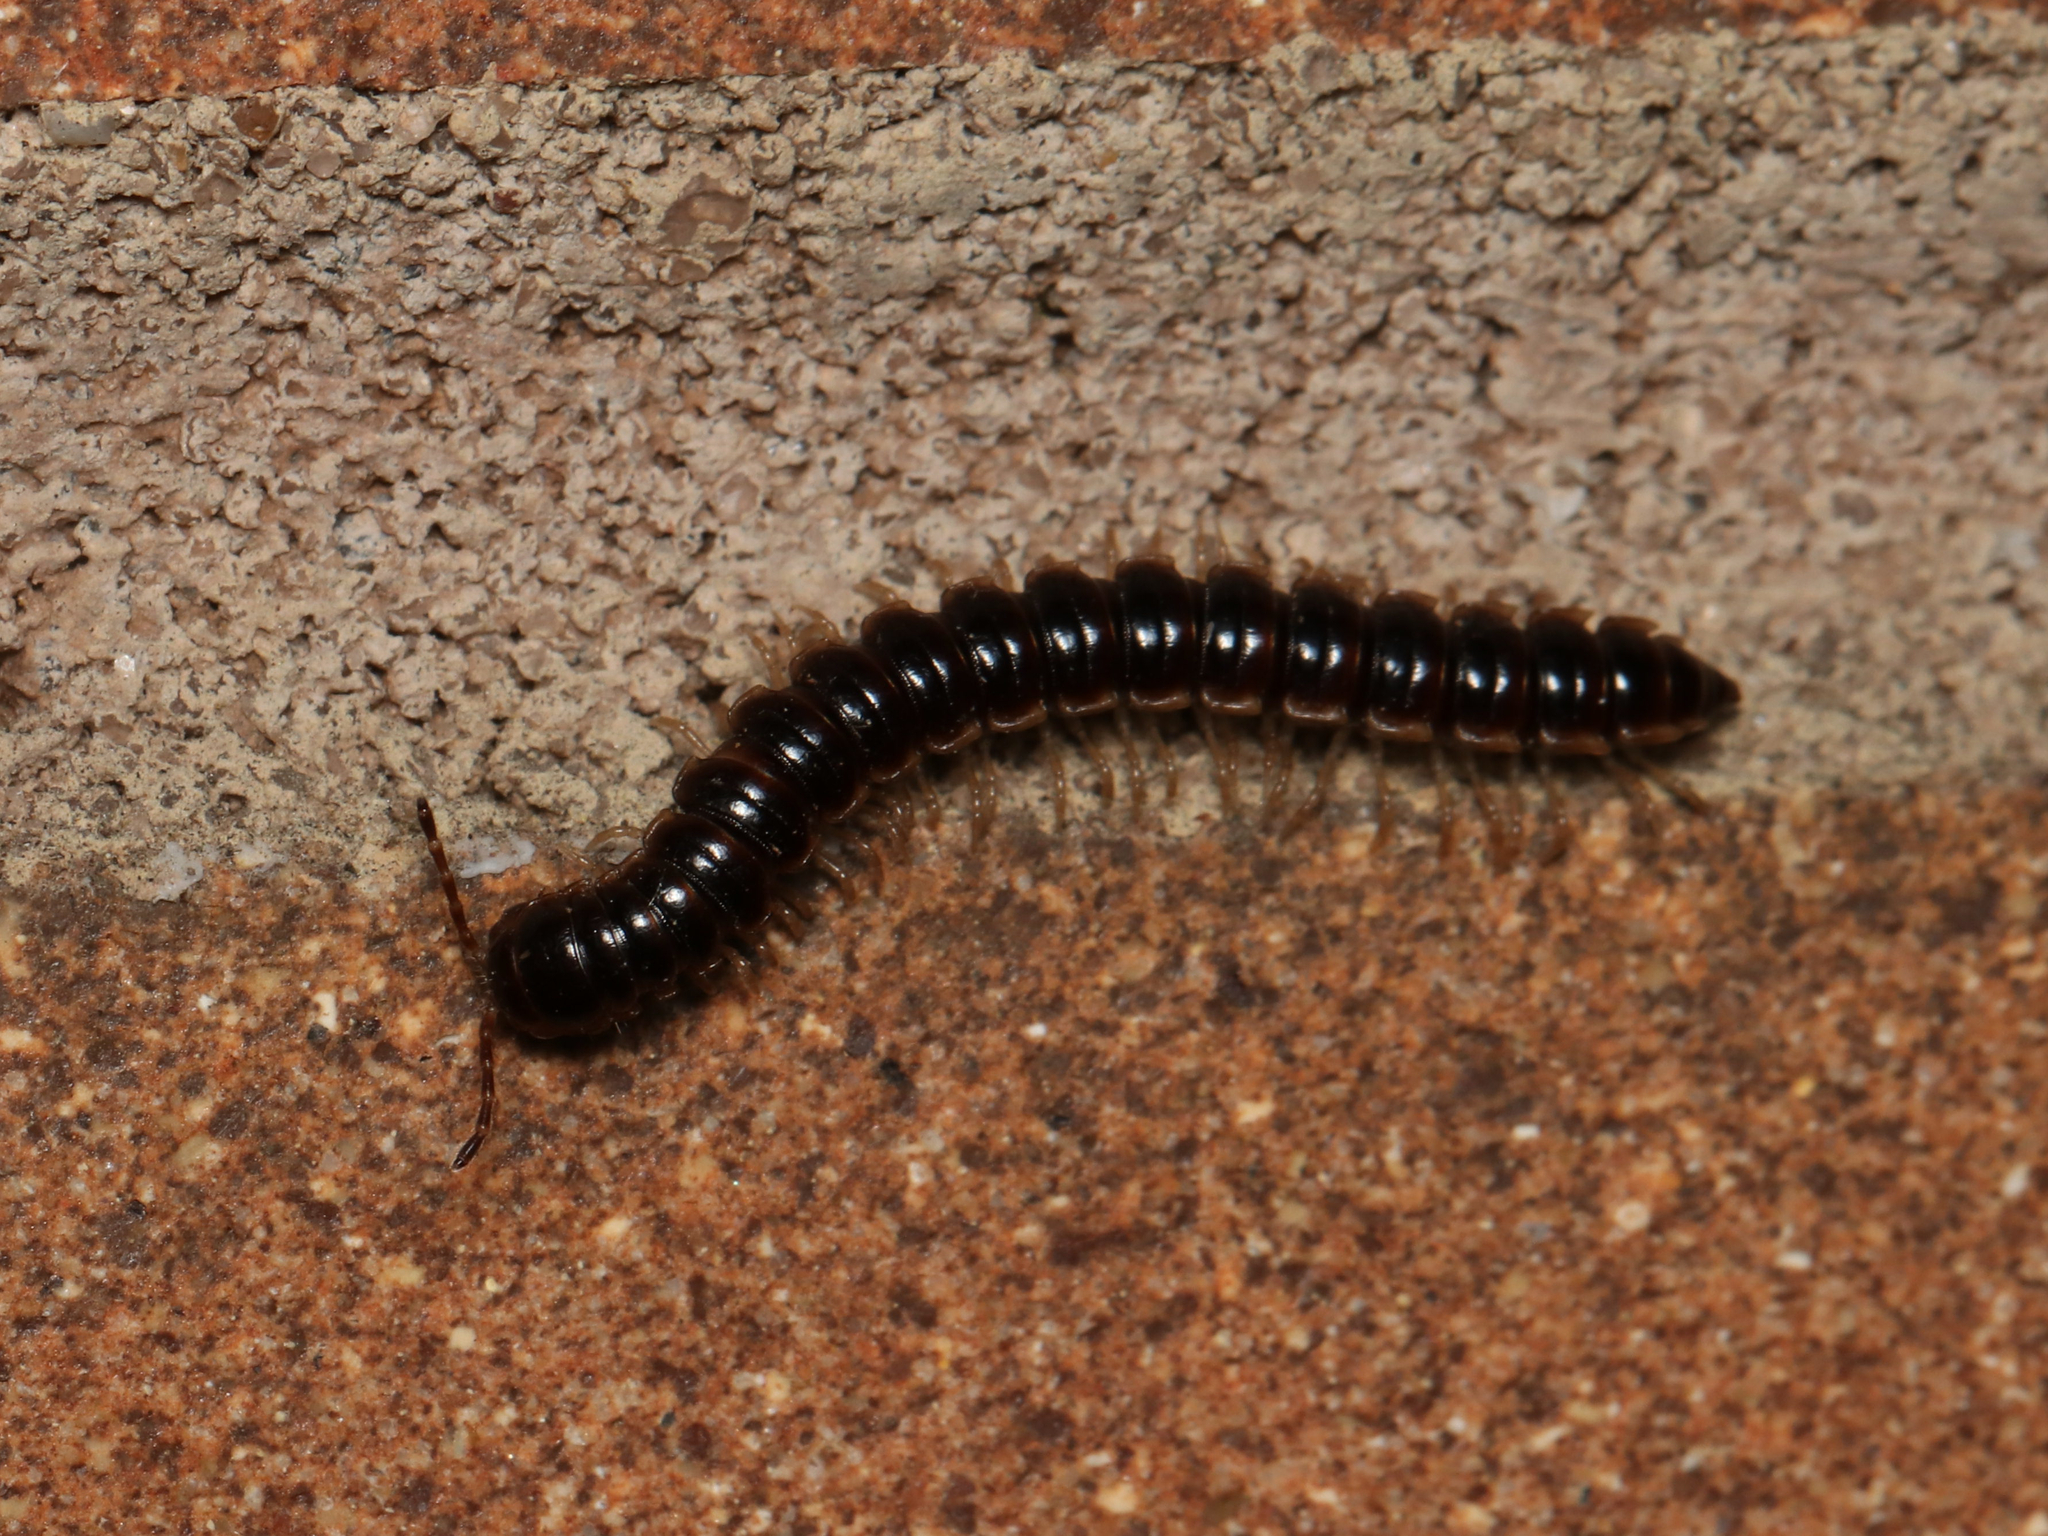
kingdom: Animalia
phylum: Arthropoda
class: Diplopoda
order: Polydesmida
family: Paradoxosomatidae
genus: Oxidus
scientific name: Oxidus gracilis
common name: Greenhouse millipede
